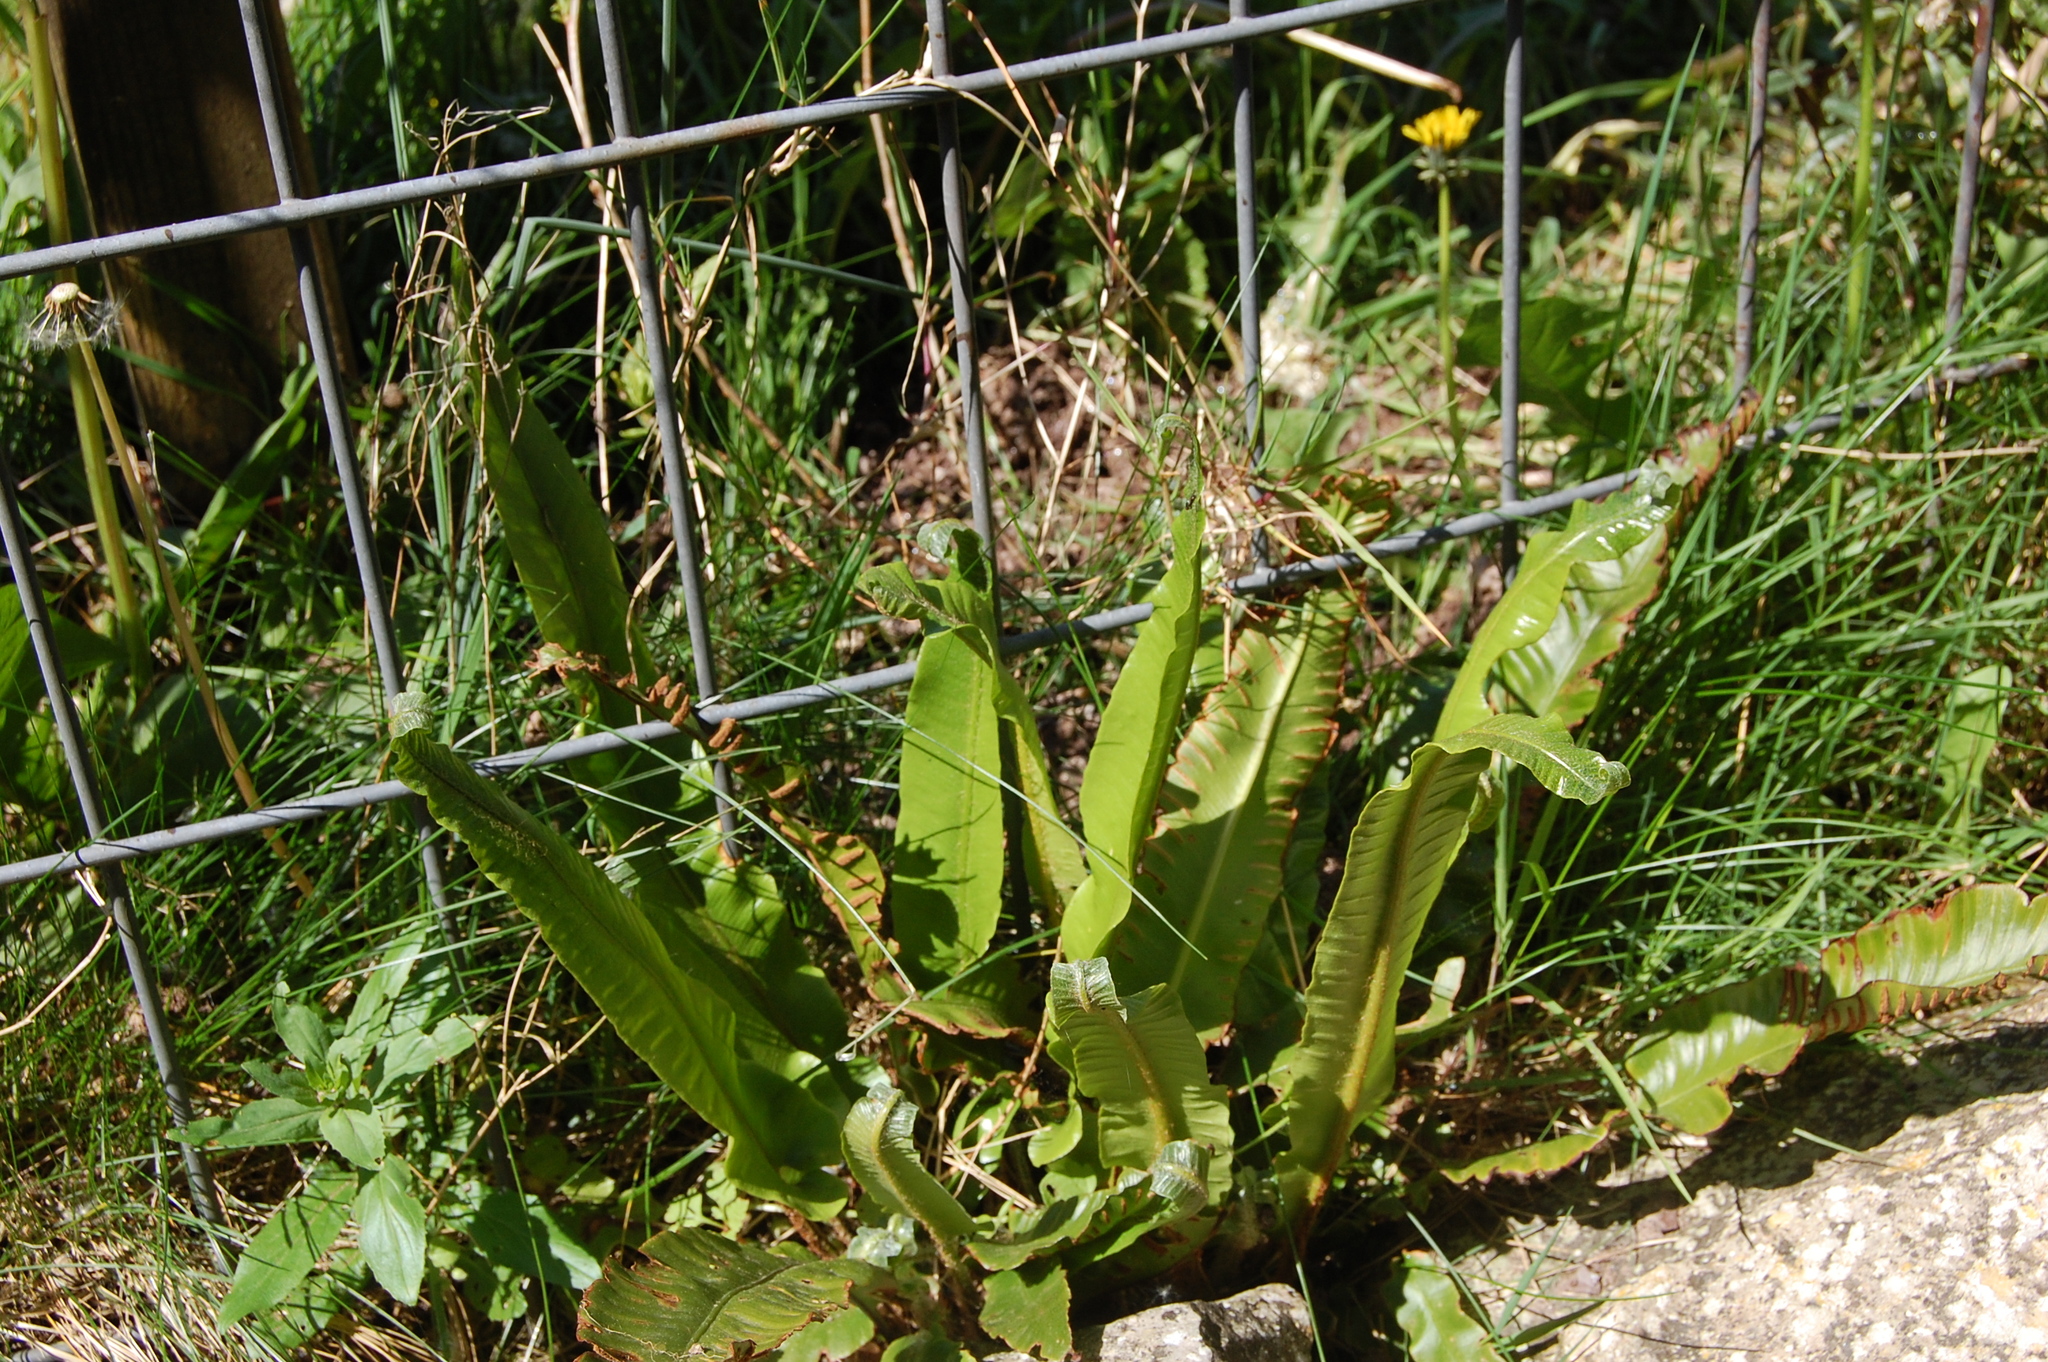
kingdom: Plantae
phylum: Tracheophyta
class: Polypodiopsida
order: Polypodiales
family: Aspleniaceae
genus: Asplenium
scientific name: Asplenium scolopendrium
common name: Hart's-tongue fern
